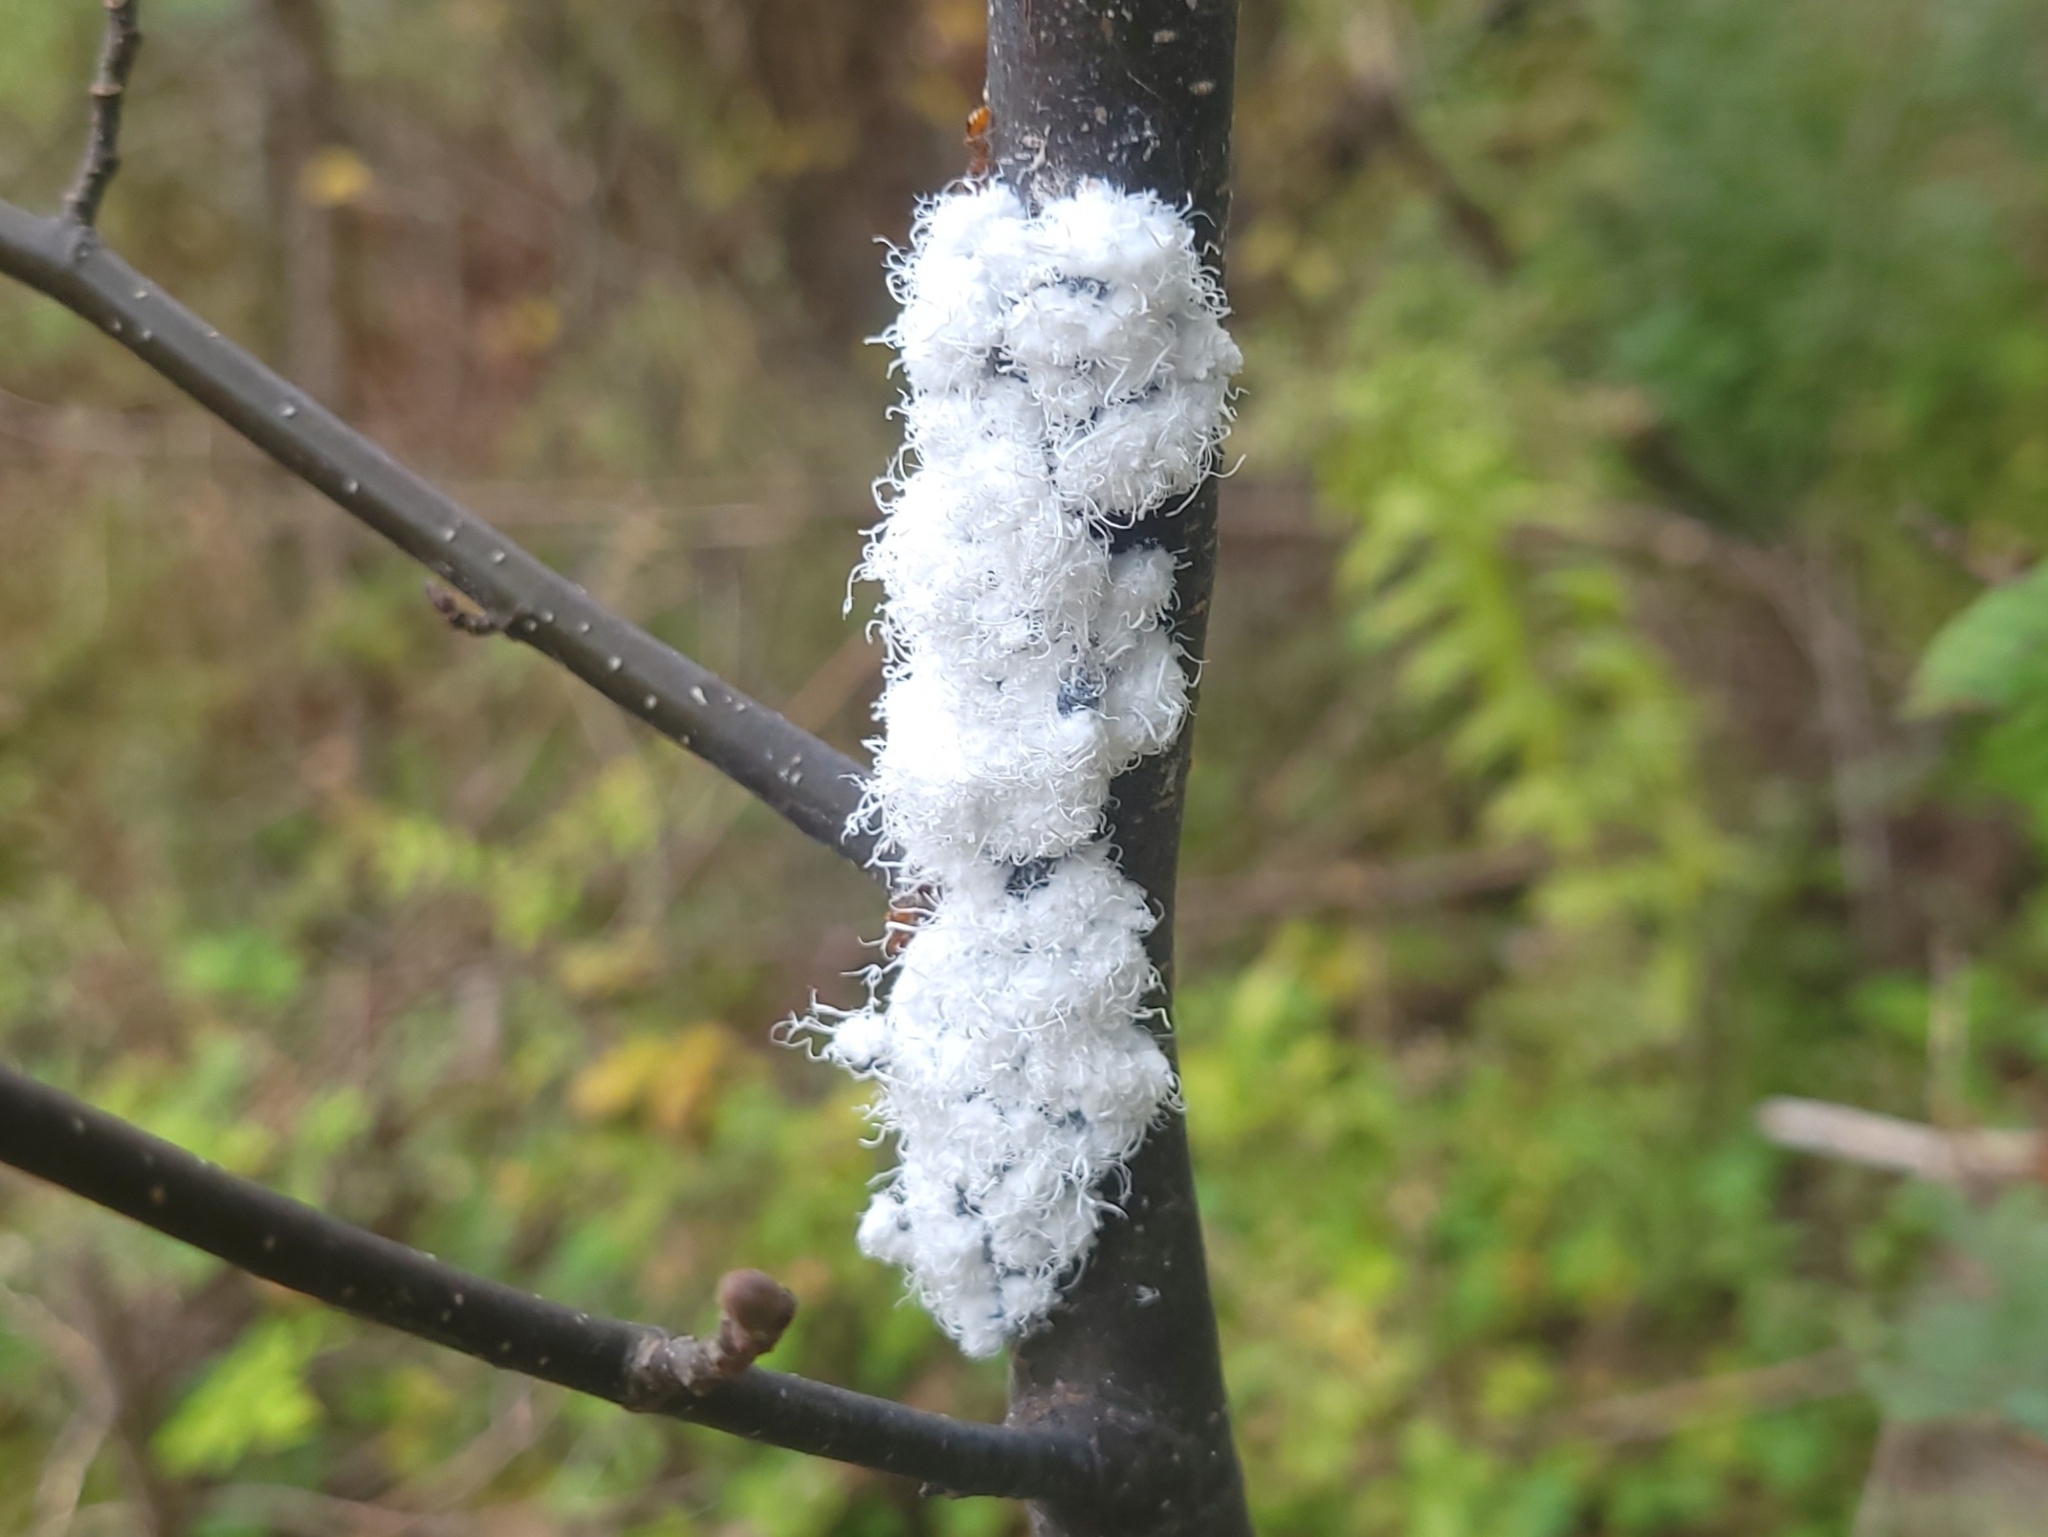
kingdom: Animalia
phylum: Arthropoda
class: Insecta
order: Hemiptera
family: Aphididae
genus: Prociphilus
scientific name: Prociphilus tessellatus
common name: Woolly alder aphid
